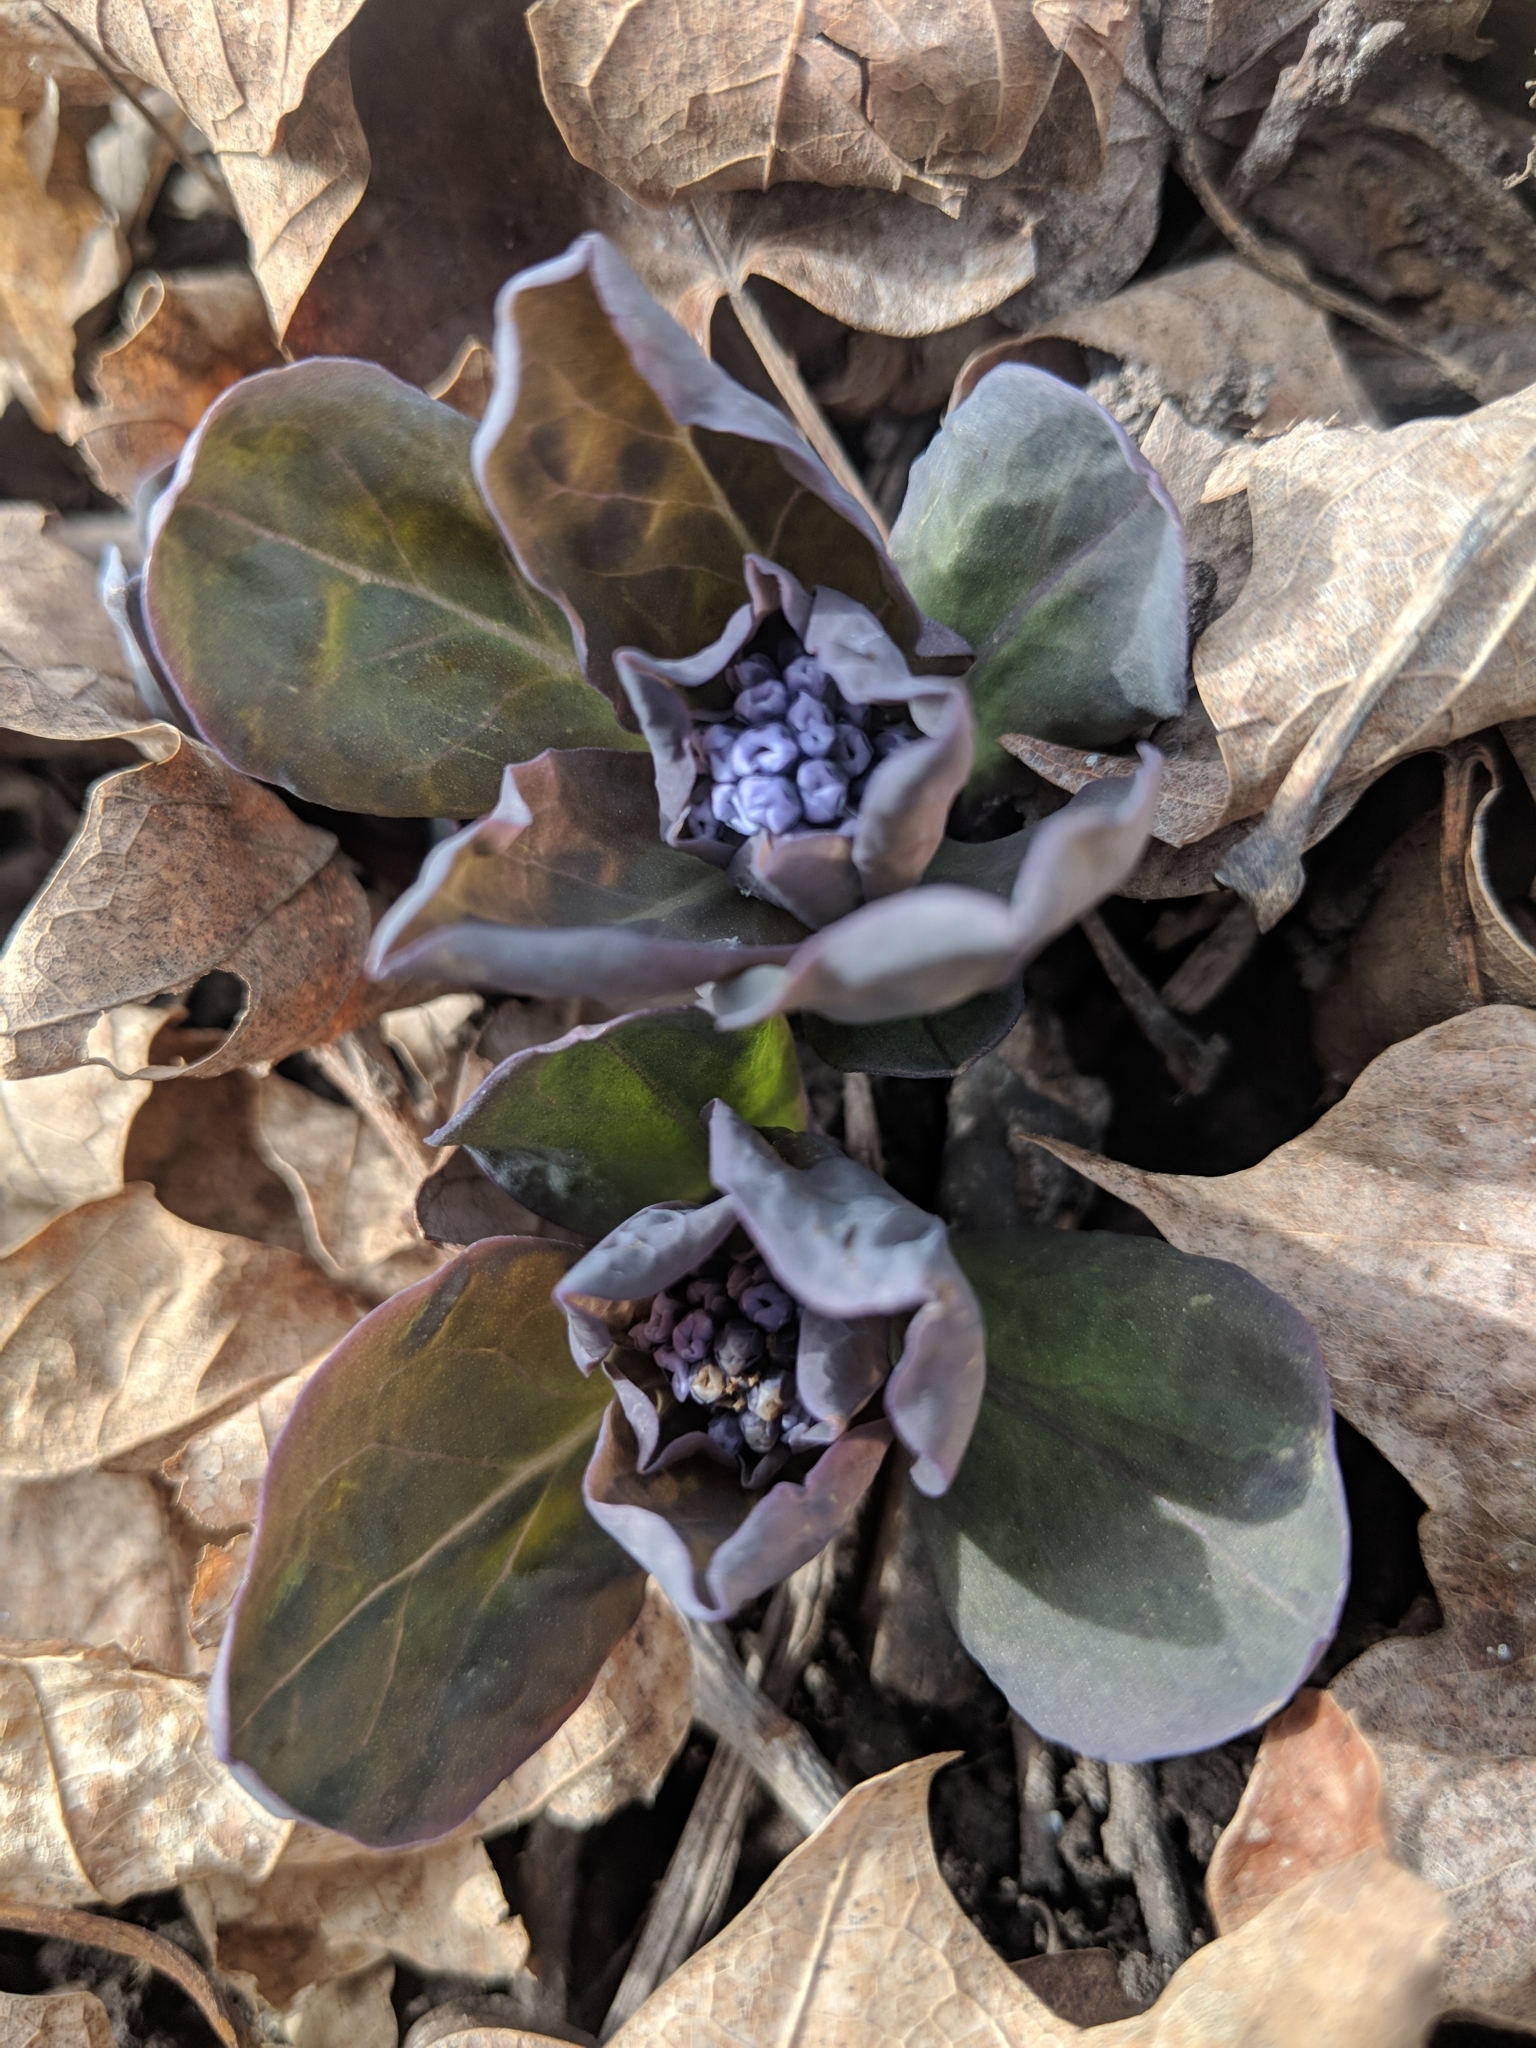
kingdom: Plantae
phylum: Tracheophyta
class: Magnoliopsida
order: Boraginales
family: Boraginaceae
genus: Mertensia
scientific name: Mertensia virginica
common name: Virginia bluebells
